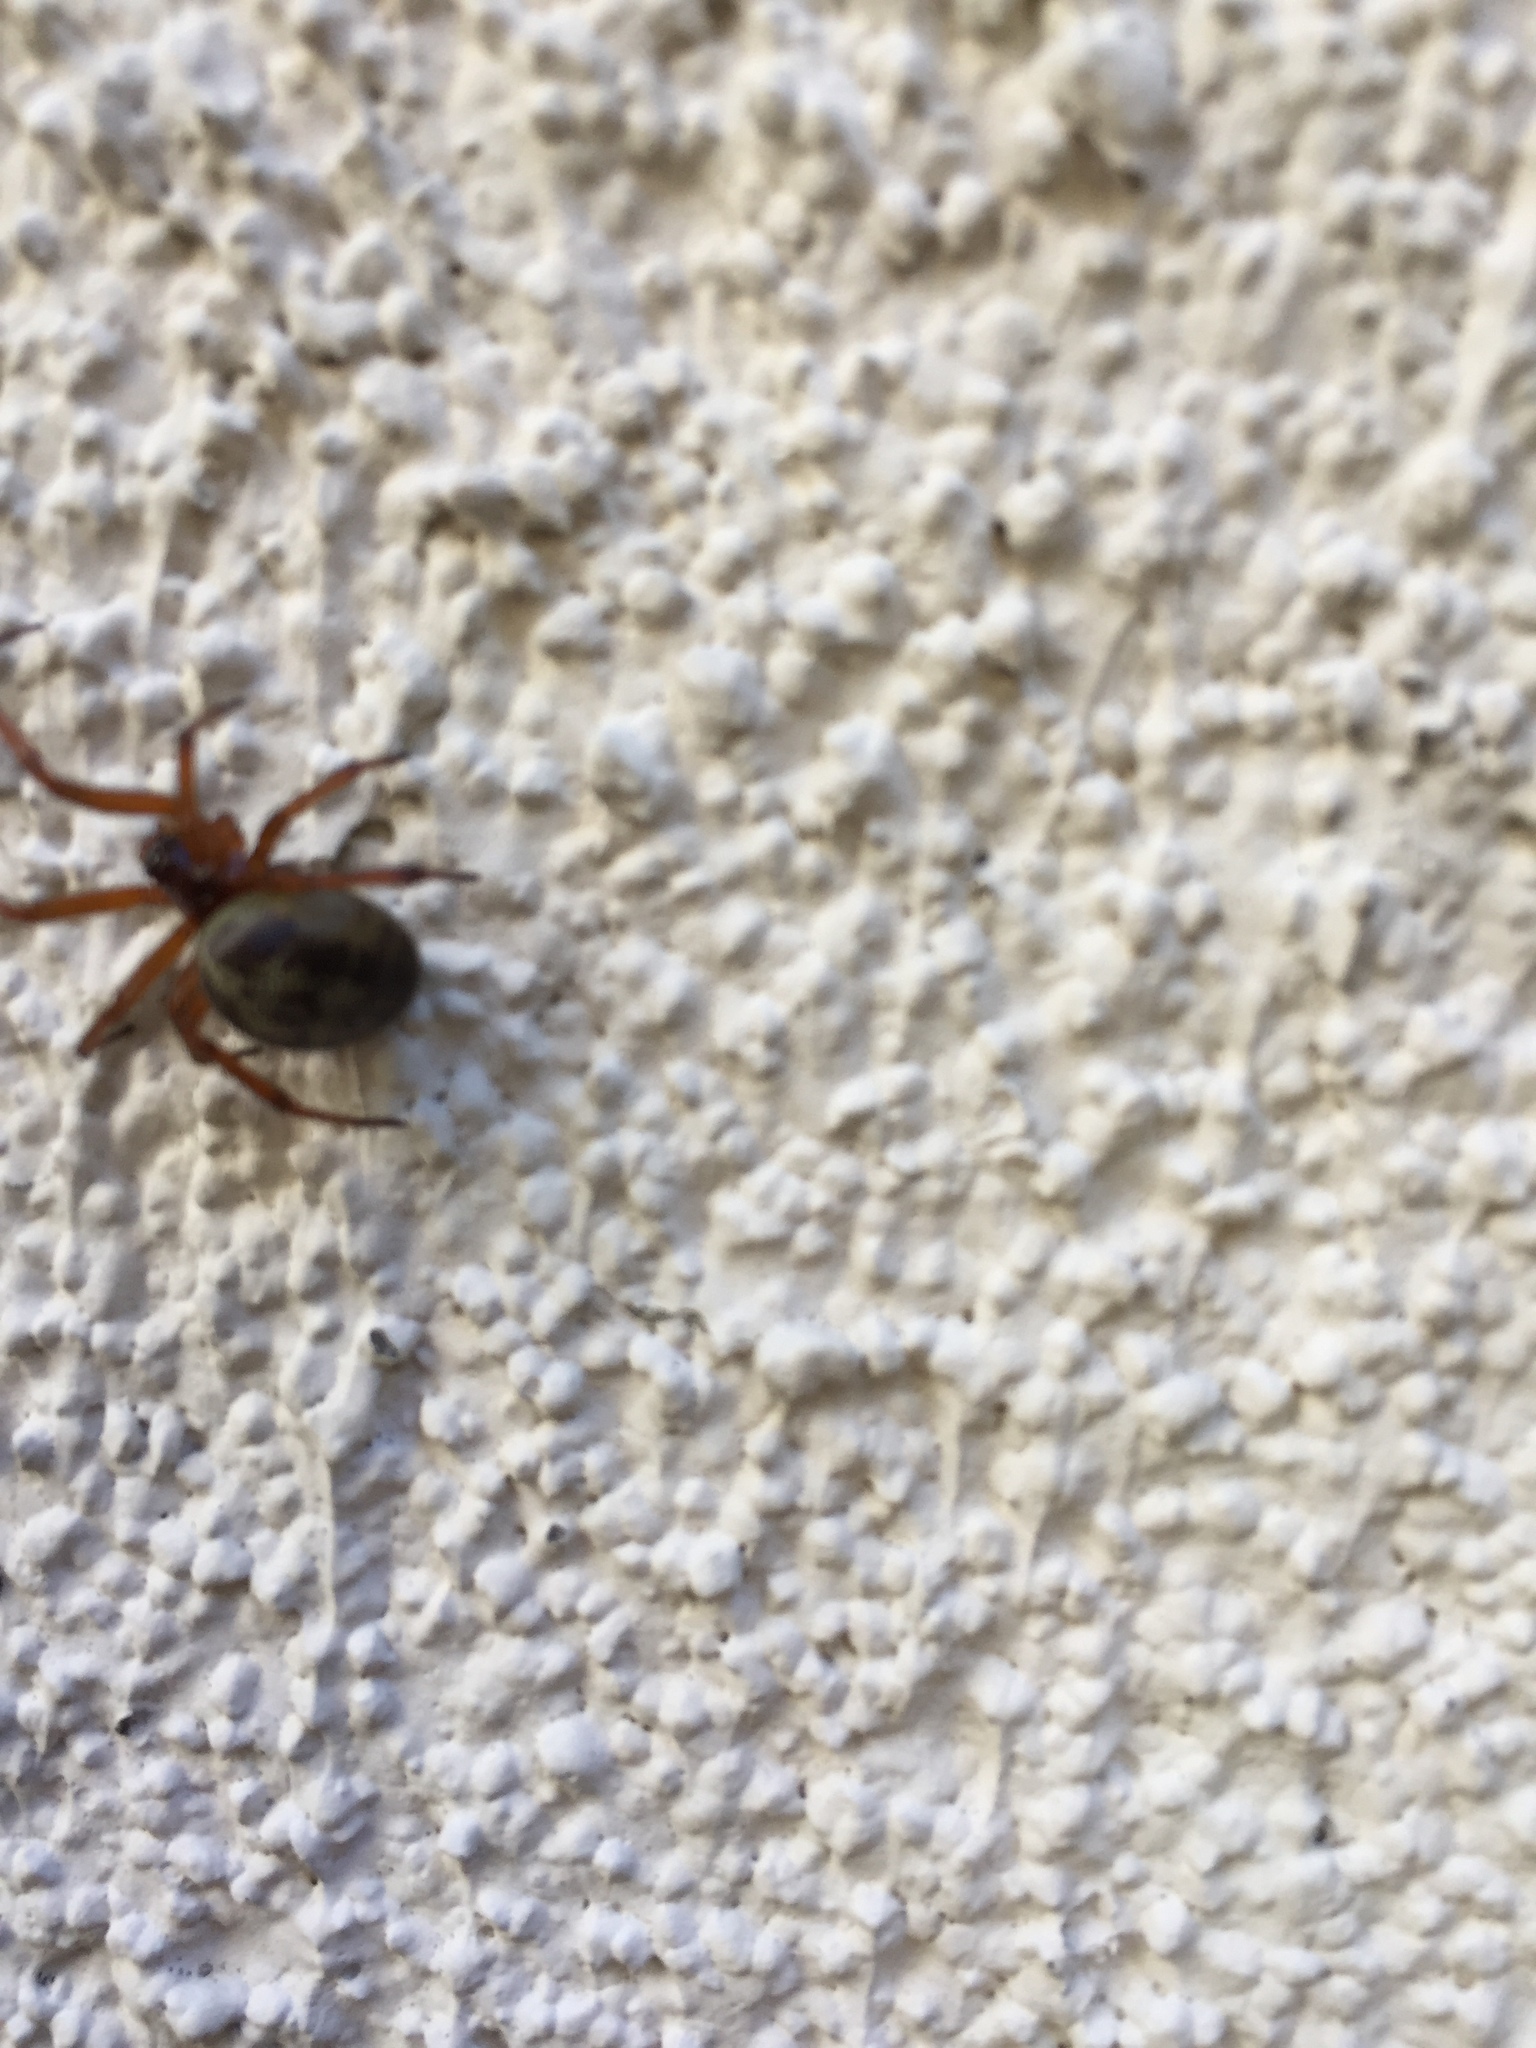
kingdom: Animalia
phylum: Arthropoda
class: Arachnida
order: Araneae
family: Theridiidae
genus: Steatoda
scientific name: Steatoda nobilis
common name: Cobweb weaver
